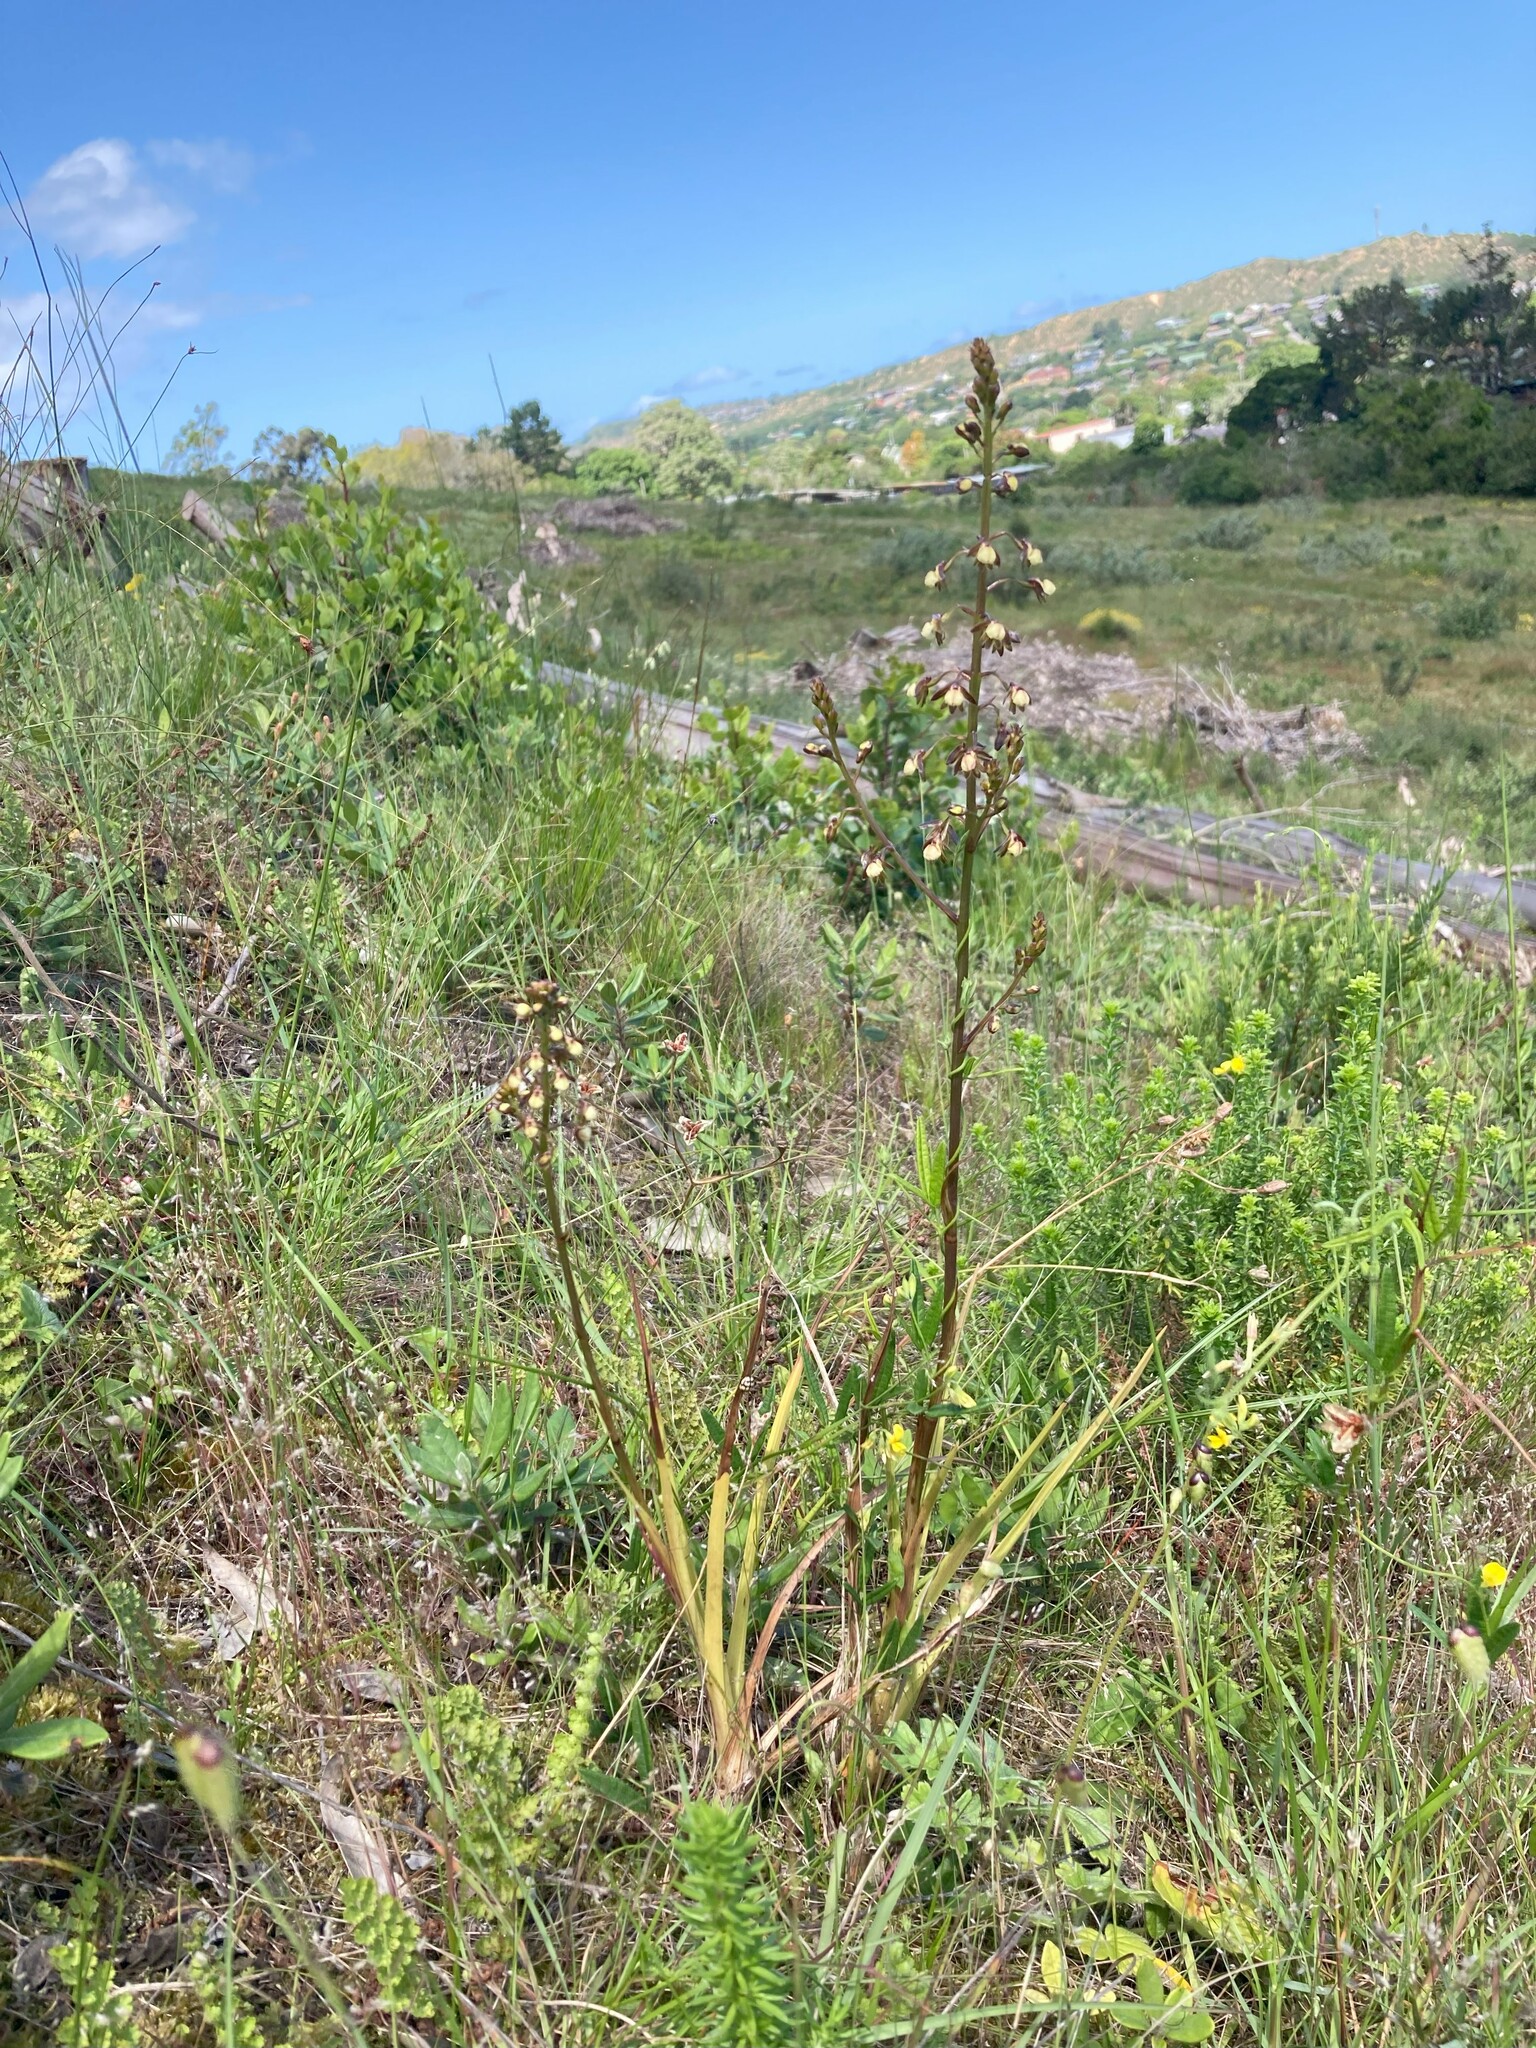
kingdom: Plantae
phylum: Tracheophyta
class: Liliopsida
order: Asparagales
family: Orchidaceae
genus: Eulophia
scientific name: Eulophia cochlearis
